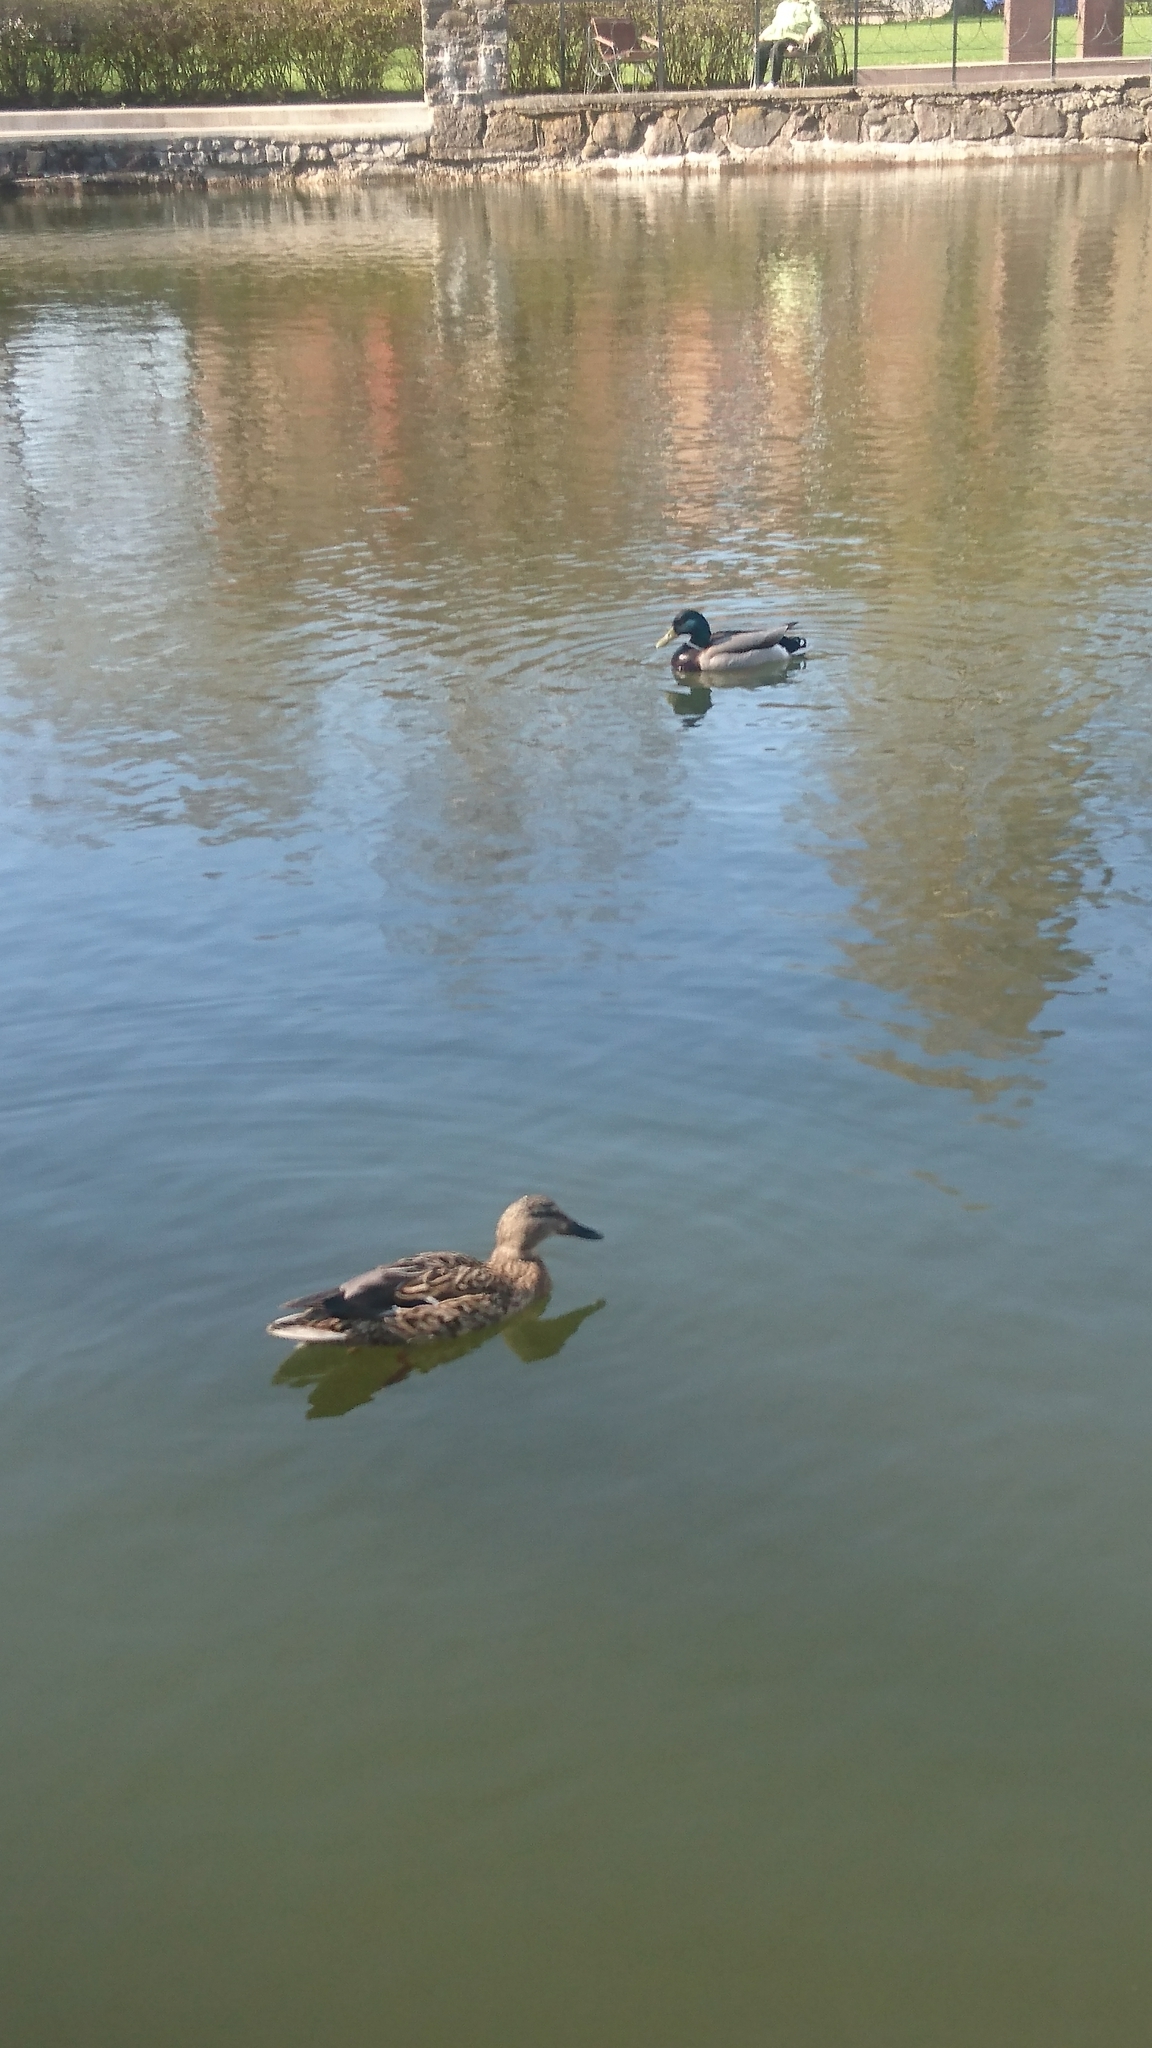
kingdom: Animalia
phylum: Chordata
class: Aves
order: Anseriformes
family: Anatidae
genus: Anas
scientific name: Anas platyrhynchos
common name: Mallard
